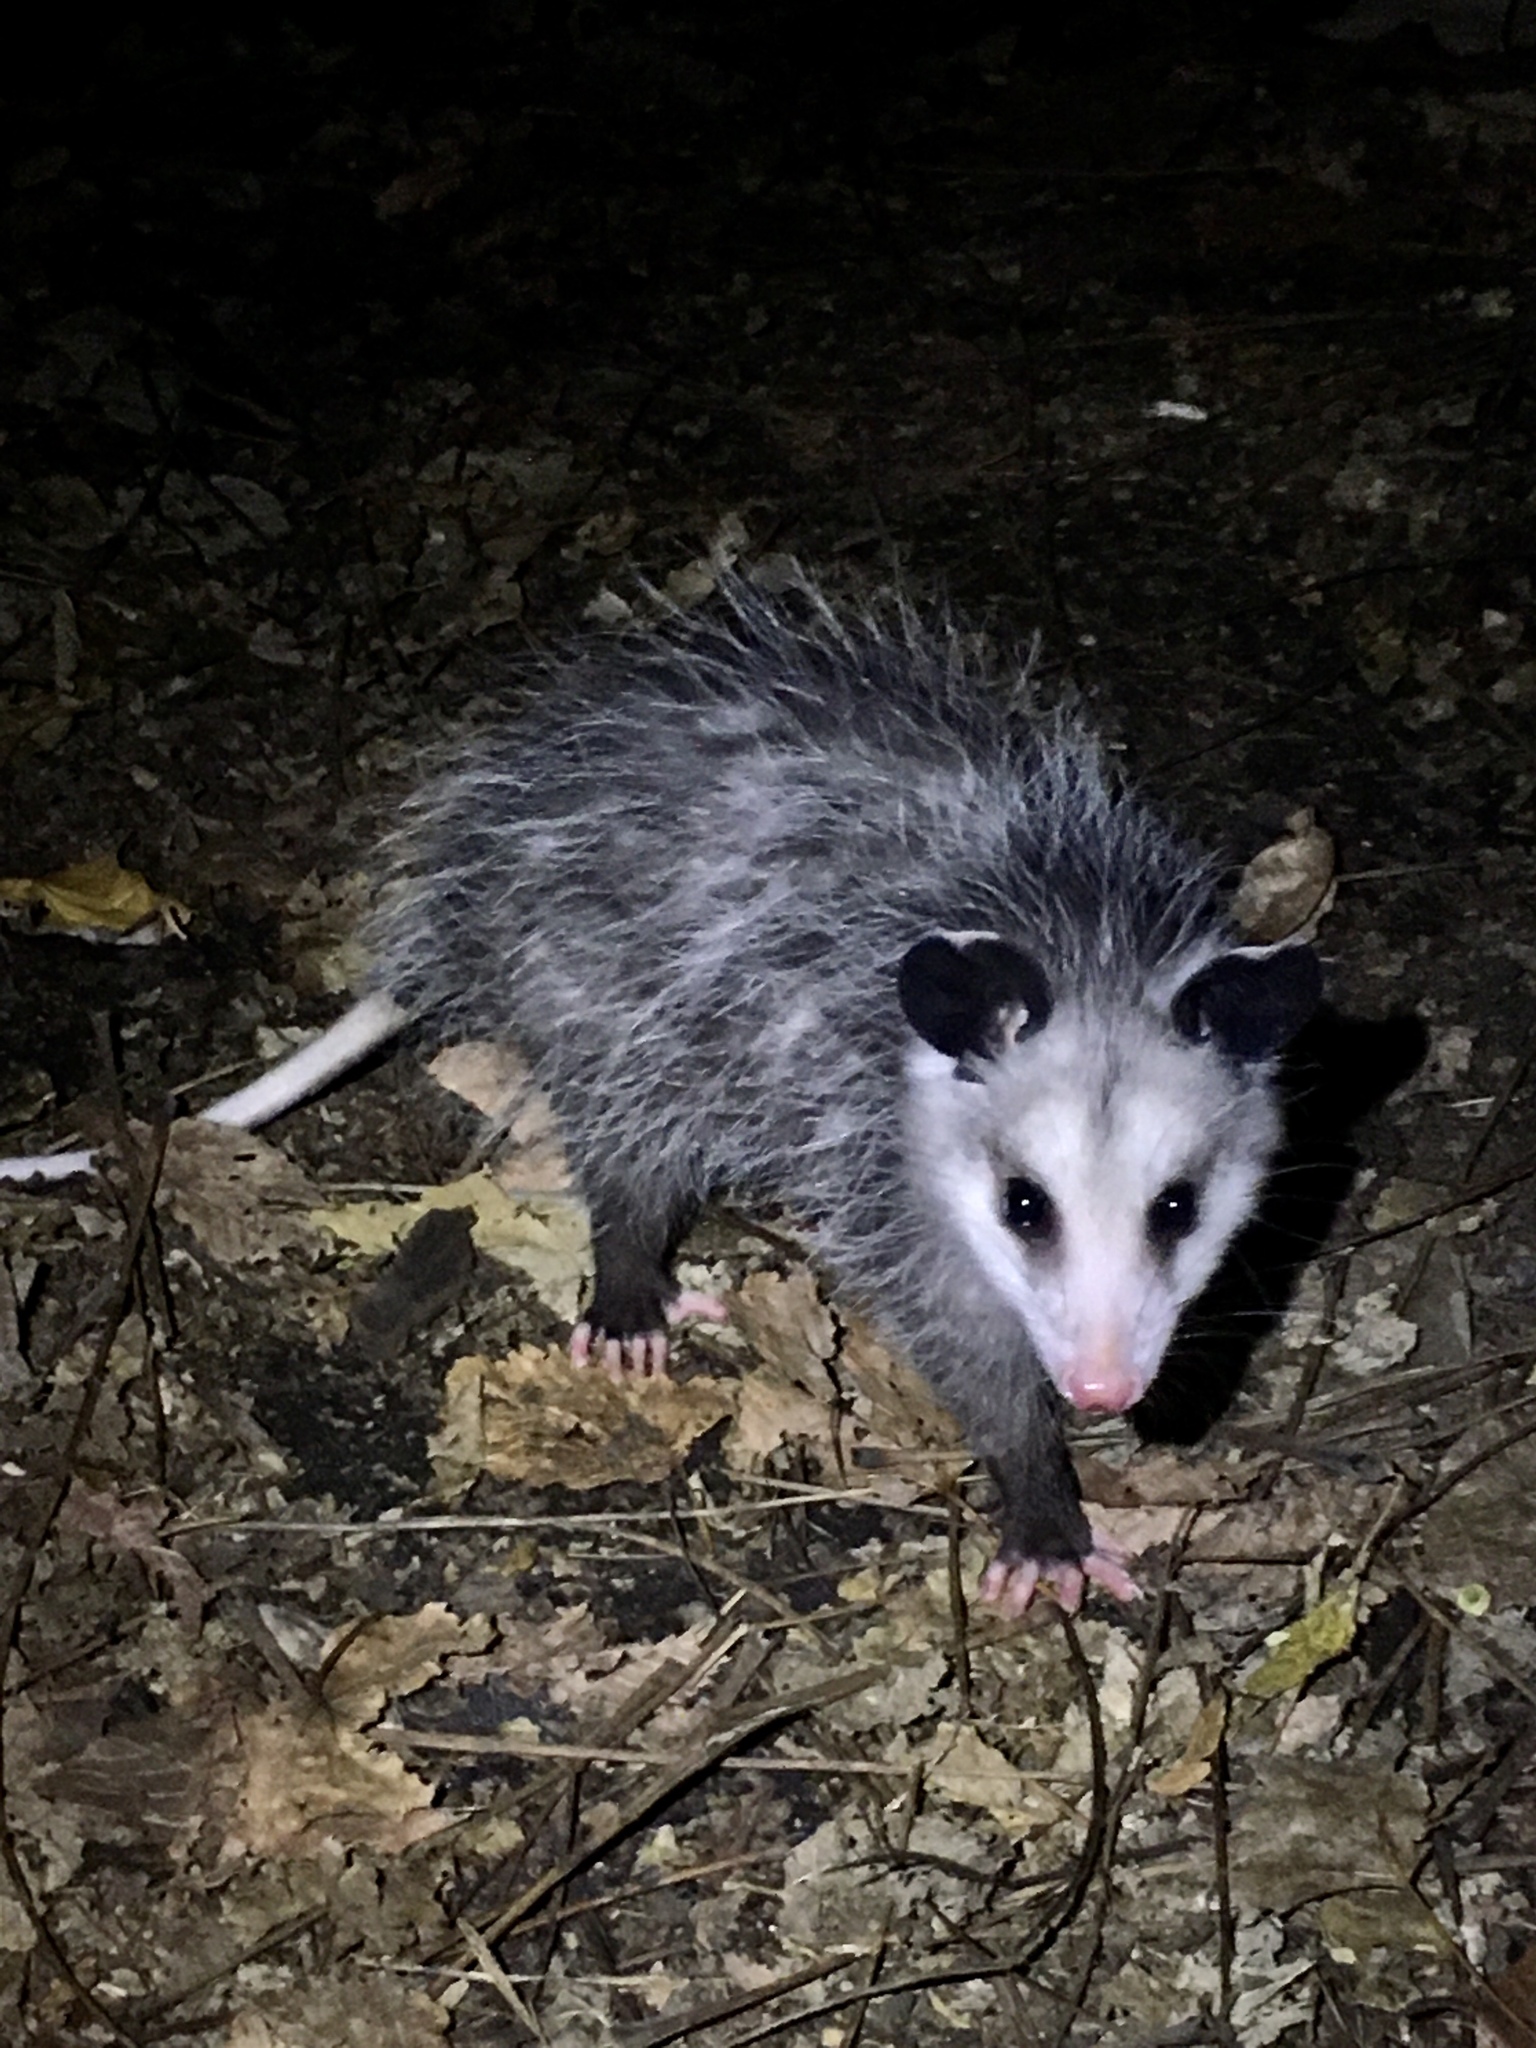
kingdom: Animalia
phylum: Chordata
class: Mammalia
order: Didelphimorphia
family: Didelphidae
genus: Didelphis
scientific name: Didelphis virginiana
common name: Virginia opossum
